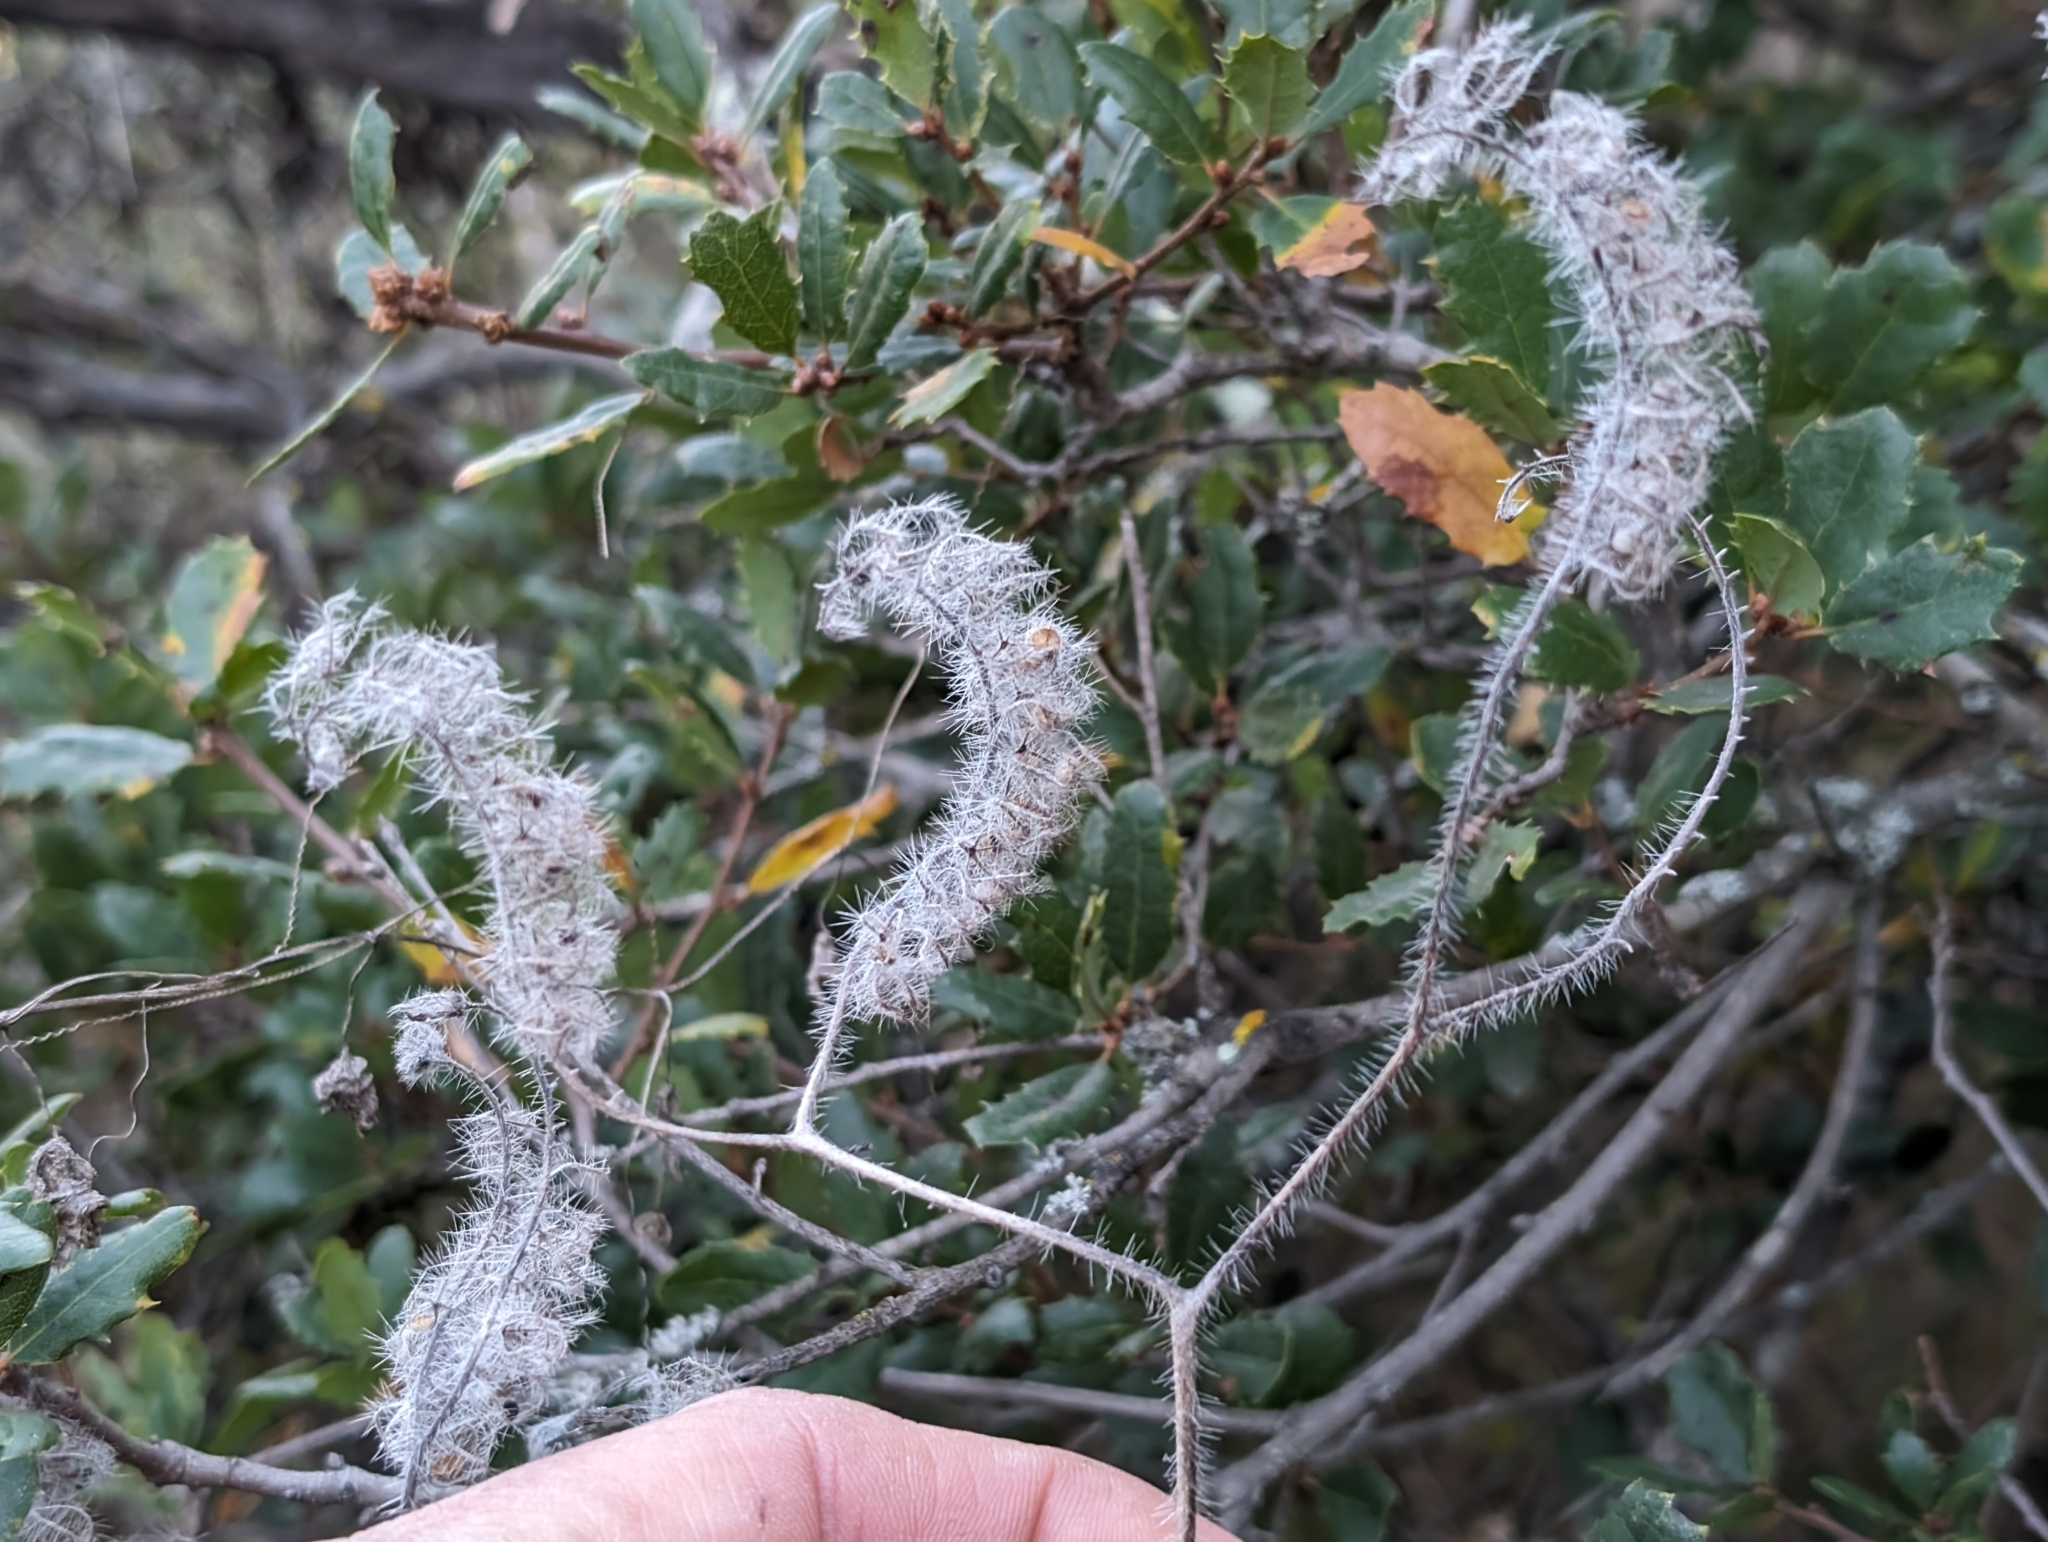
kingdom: Plantae
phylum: Tracheophyta
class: Magnoliopsida
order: Boraginales
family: Hydrophyllaceae
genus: Phacelia
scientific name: Phacelia cicutaria
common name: Caterpillar phacelia
